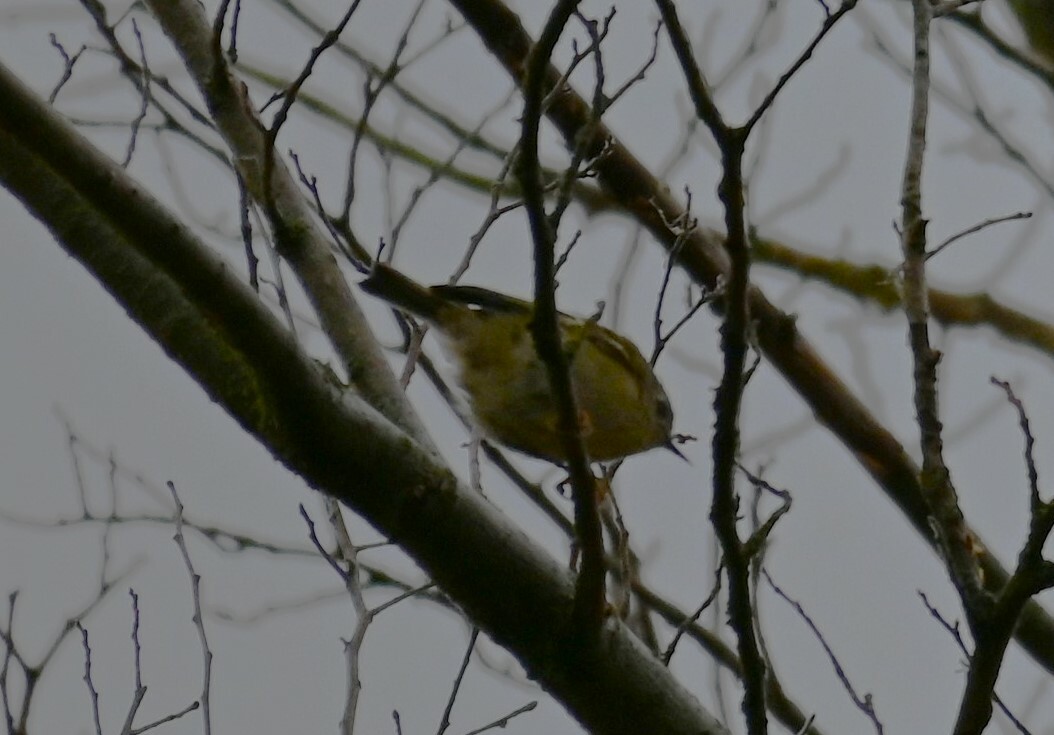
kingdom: Animalia
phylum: Chordata
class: Aves
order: Passeriformes
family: Regulidae
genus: Regulus
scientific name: Regulus regulus
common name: Goldcrest
